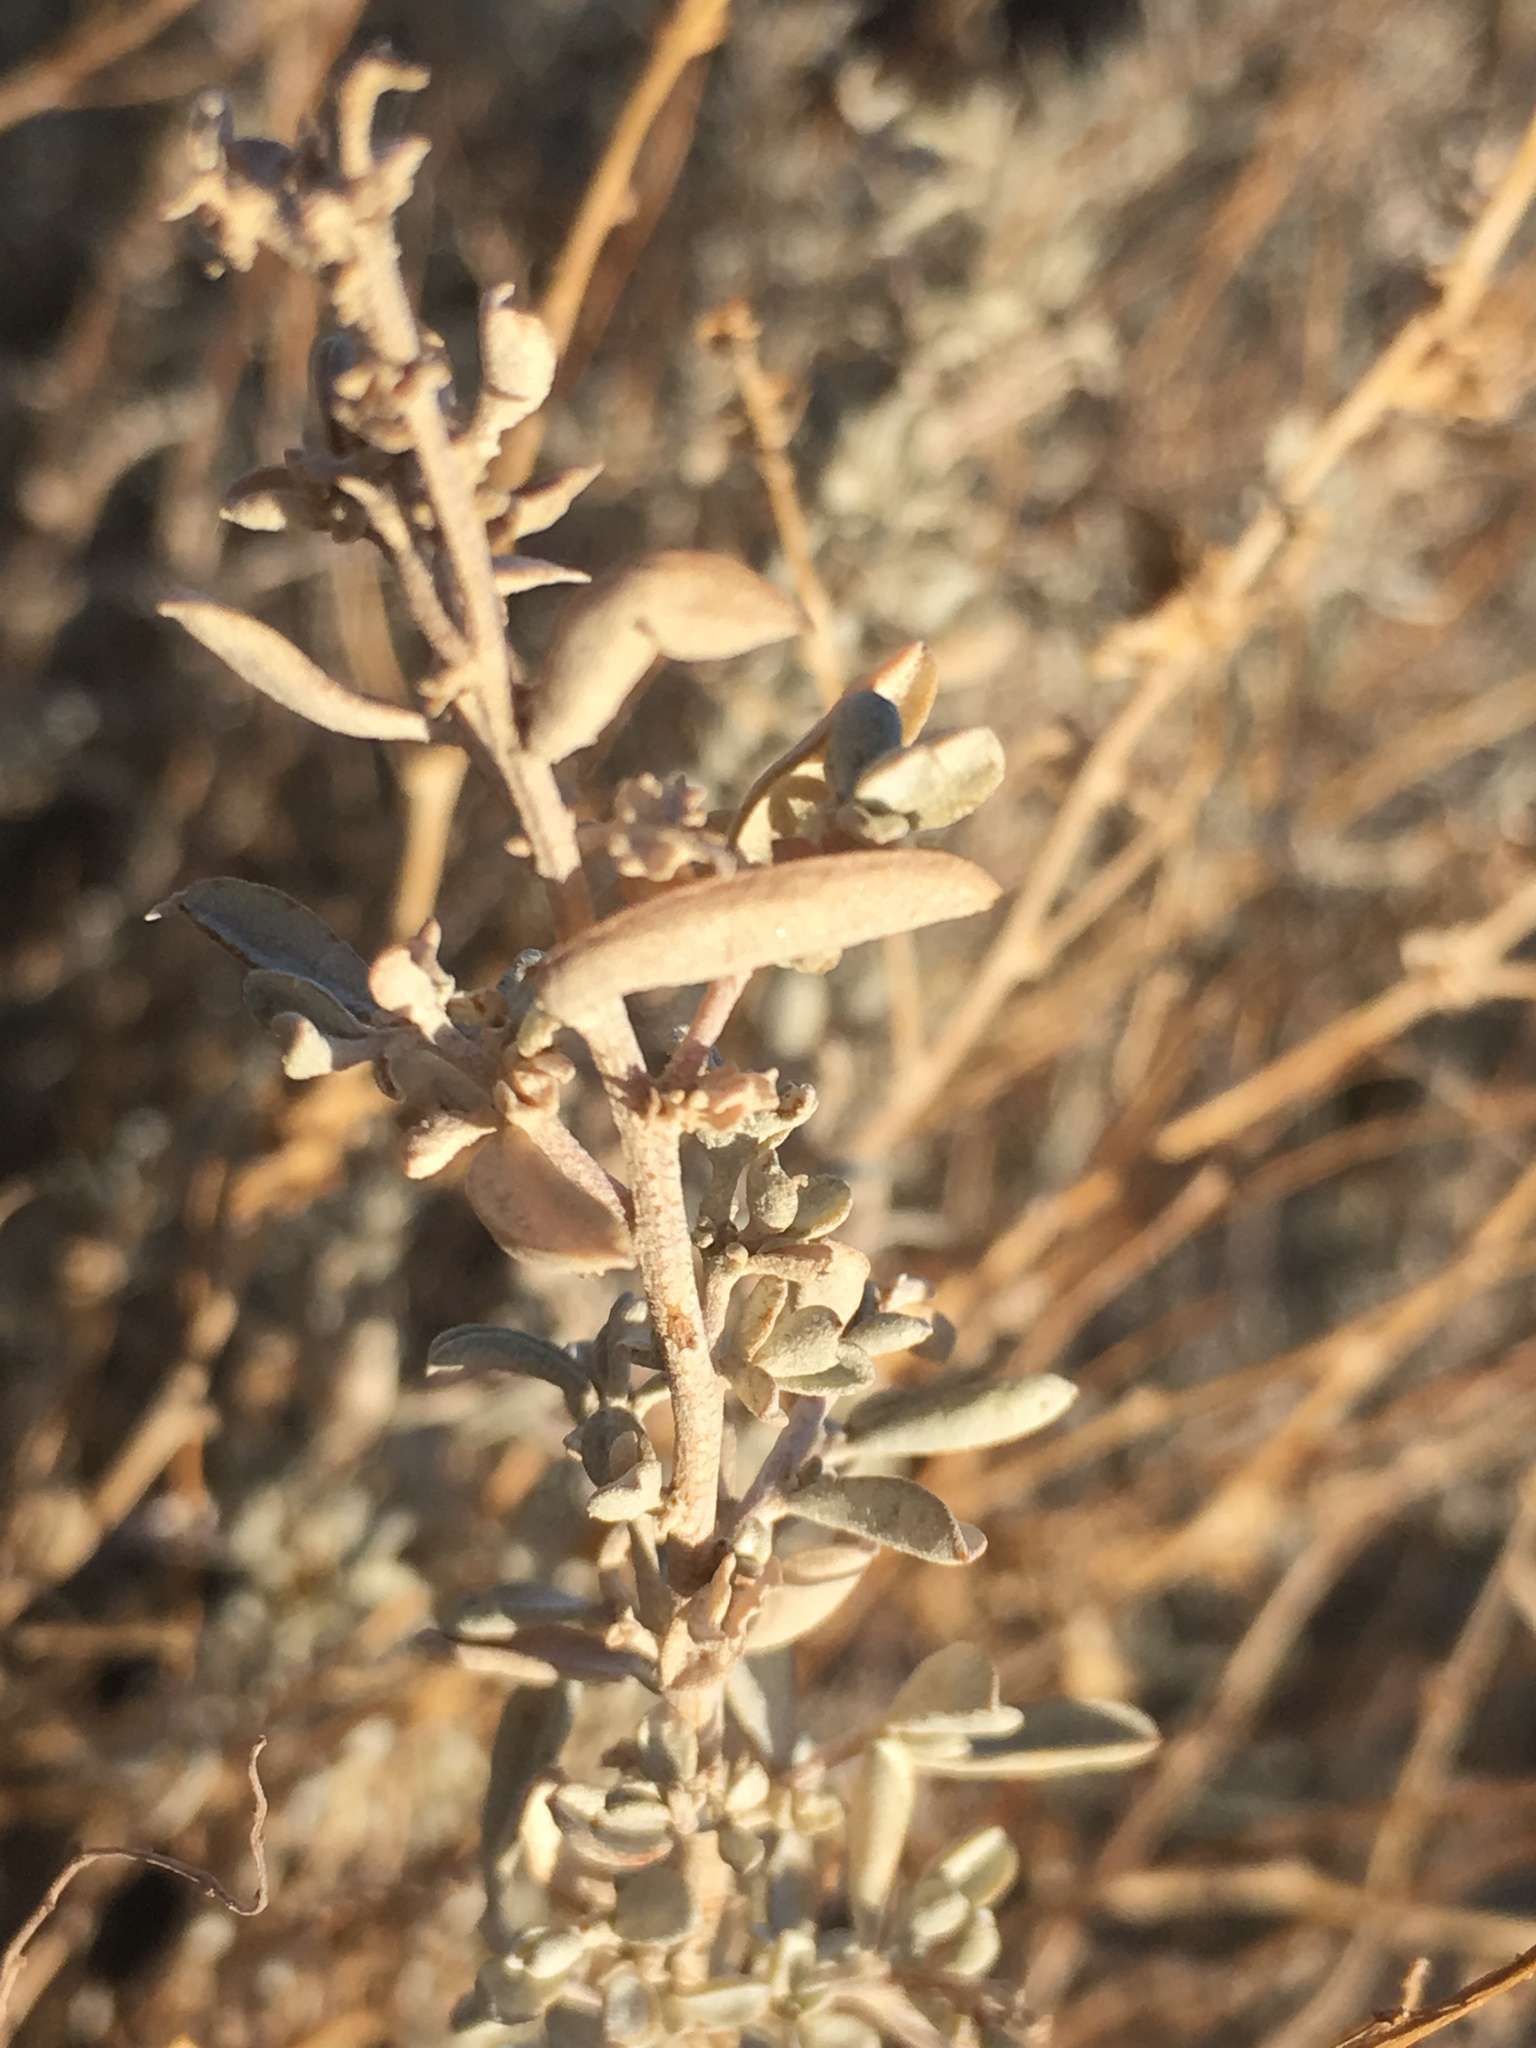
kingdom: Plantae
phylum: Tracheophyta
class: Magnoliopsida
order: Caryophyllales
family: Amaranthaceae
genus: Atriplex
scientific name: Atriplex canescens
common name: Four-wing saltbush
